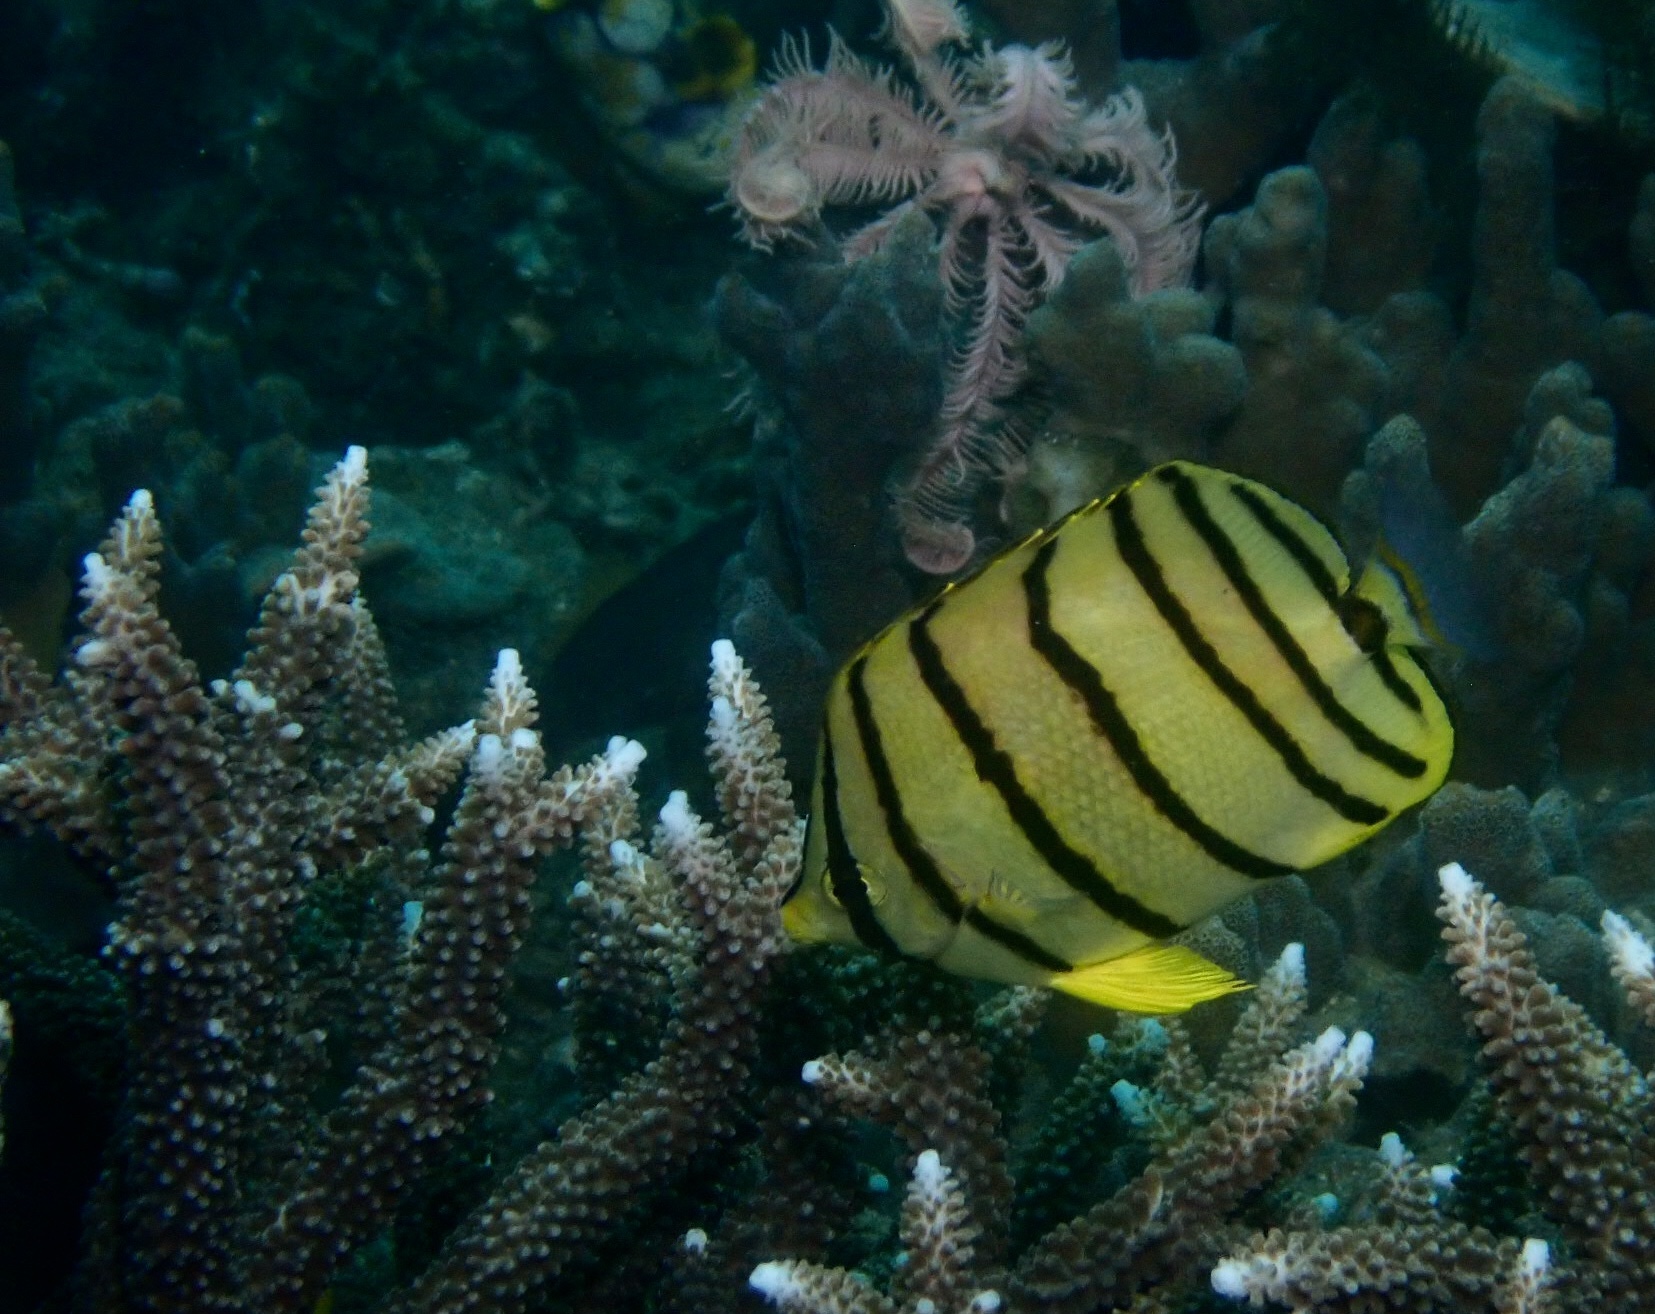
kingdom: Animalia
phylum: Chordata
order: Perciformes
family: Chaetodontidae
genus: Chaetodon
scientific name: Chaetodon octofasciatus
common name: Eightband butterflyfish
